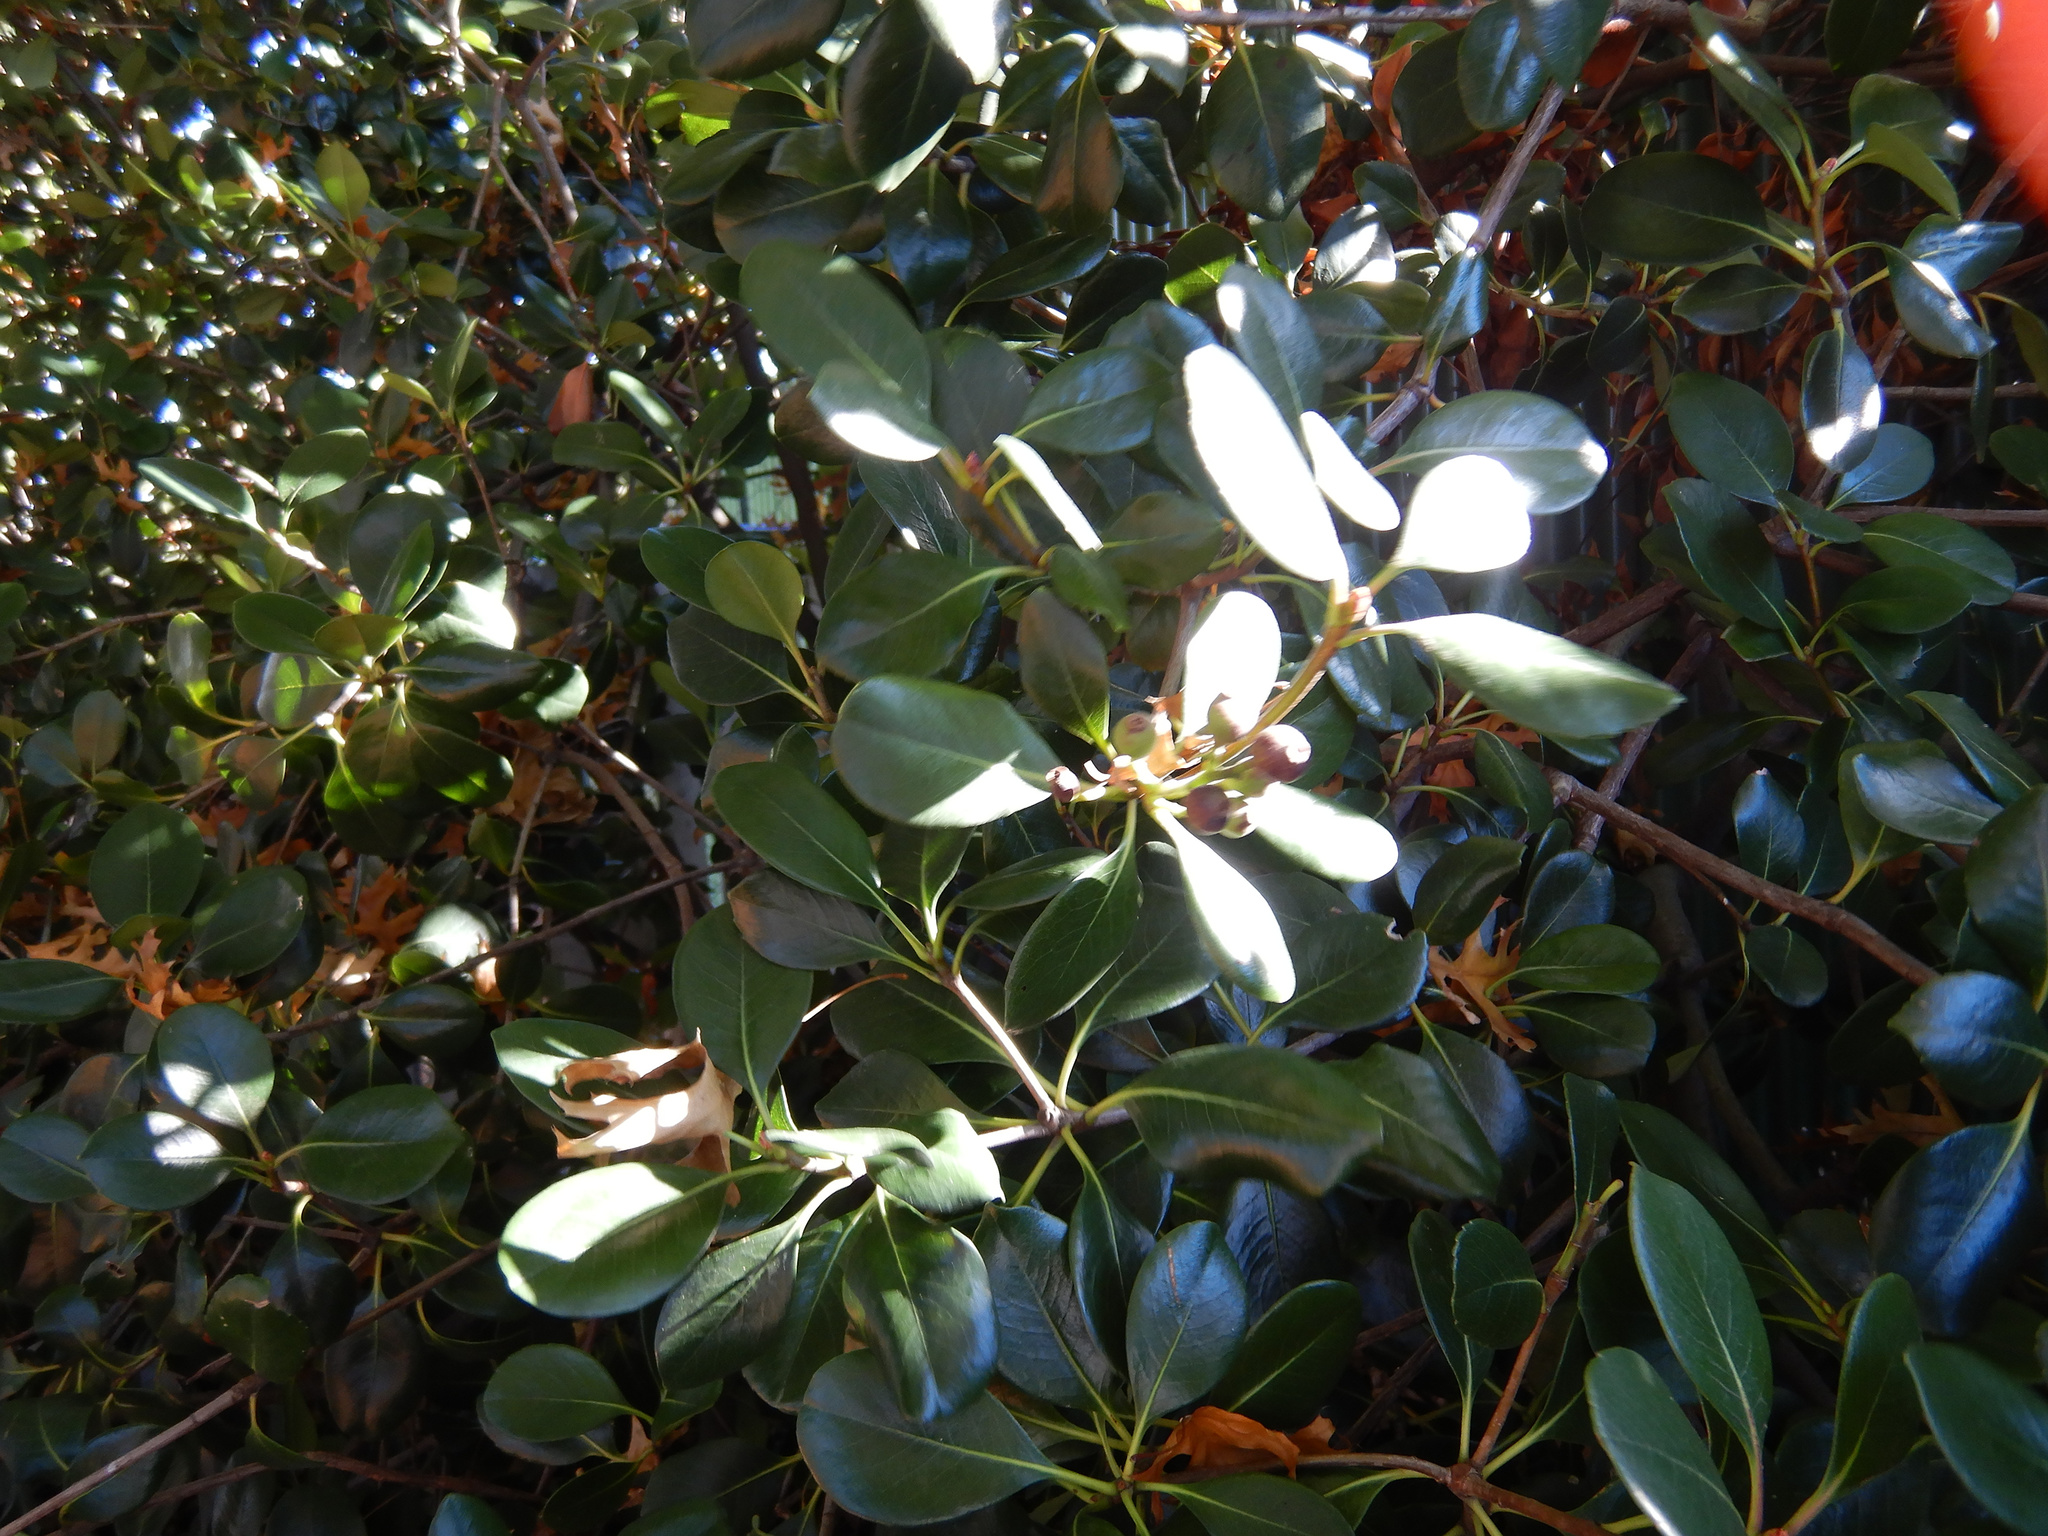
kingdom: Plantae
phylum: Tracheophyta
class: Magnoliopsida
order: Rosales
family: Rosaceae
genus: Rhaphiolepis
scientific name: Rhaphiolepis indica
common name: India-hawthorn
